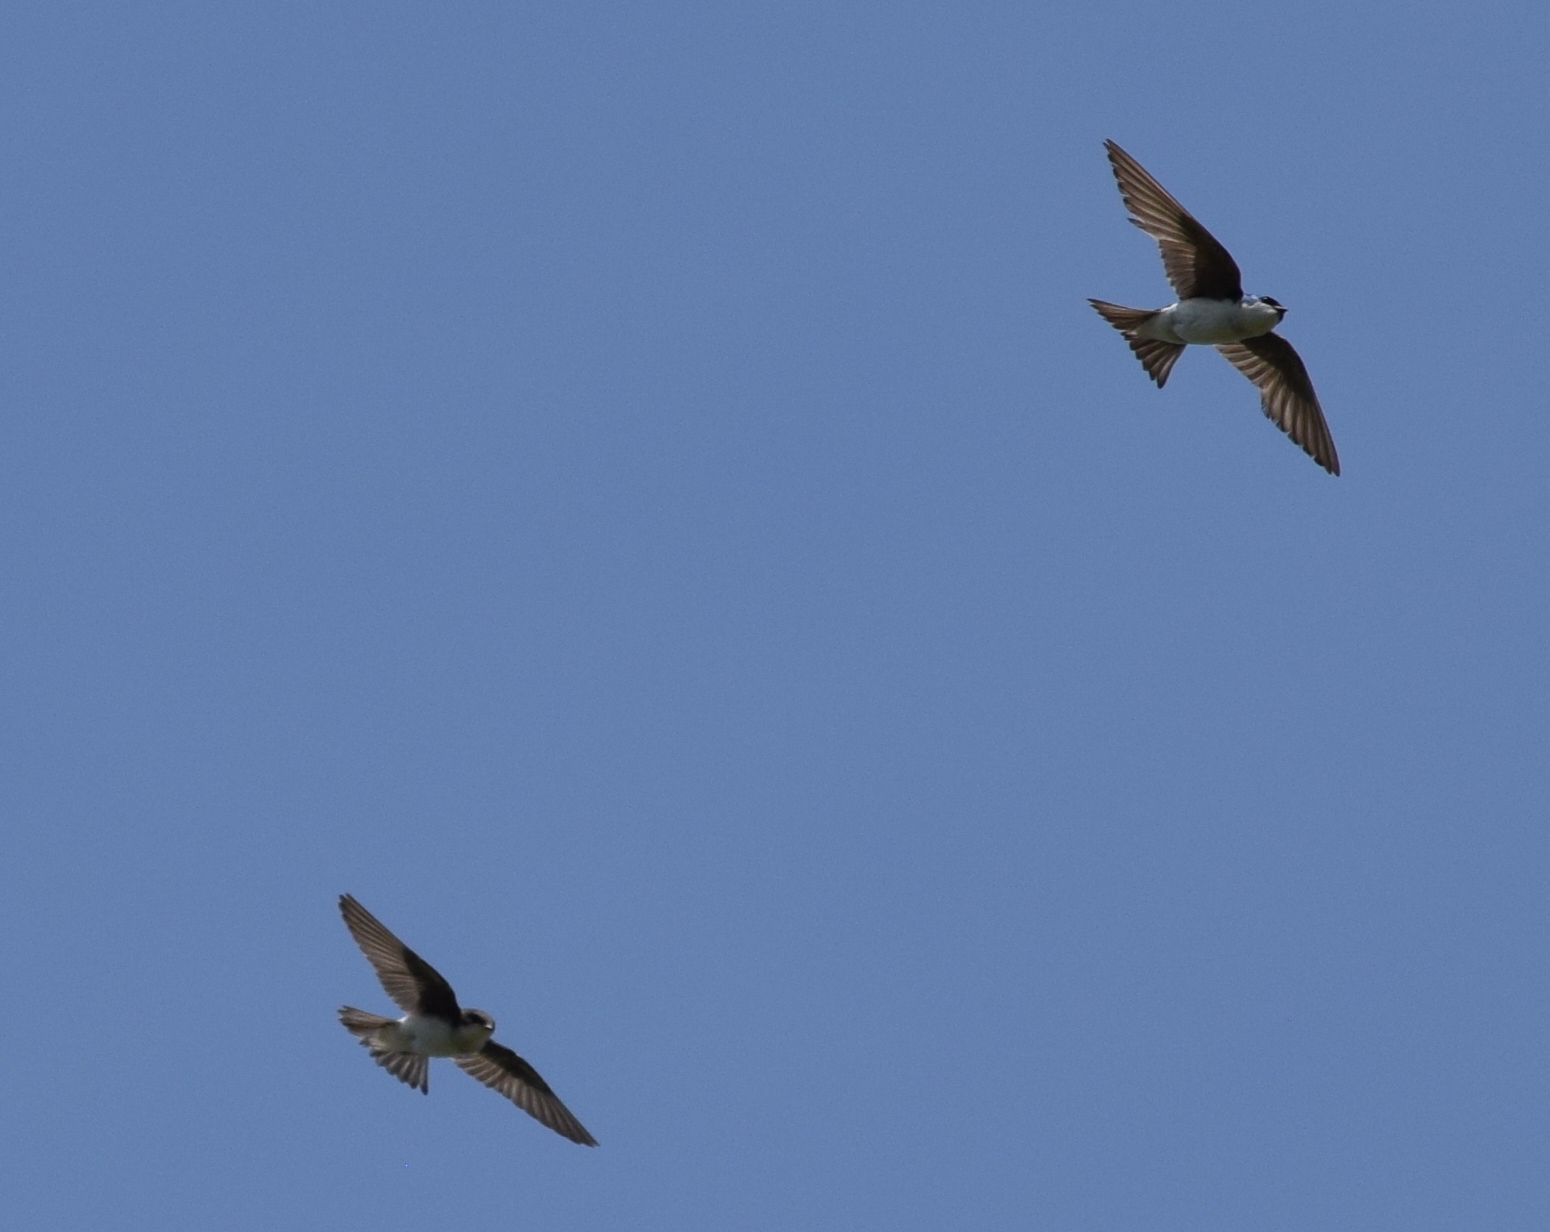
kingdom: Animalia
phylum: Chordata
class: Aves
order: Passeriformes
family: Hirundinidae
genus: Tachycineta
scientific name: Tachycineta bicolor
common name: Tree swallow
